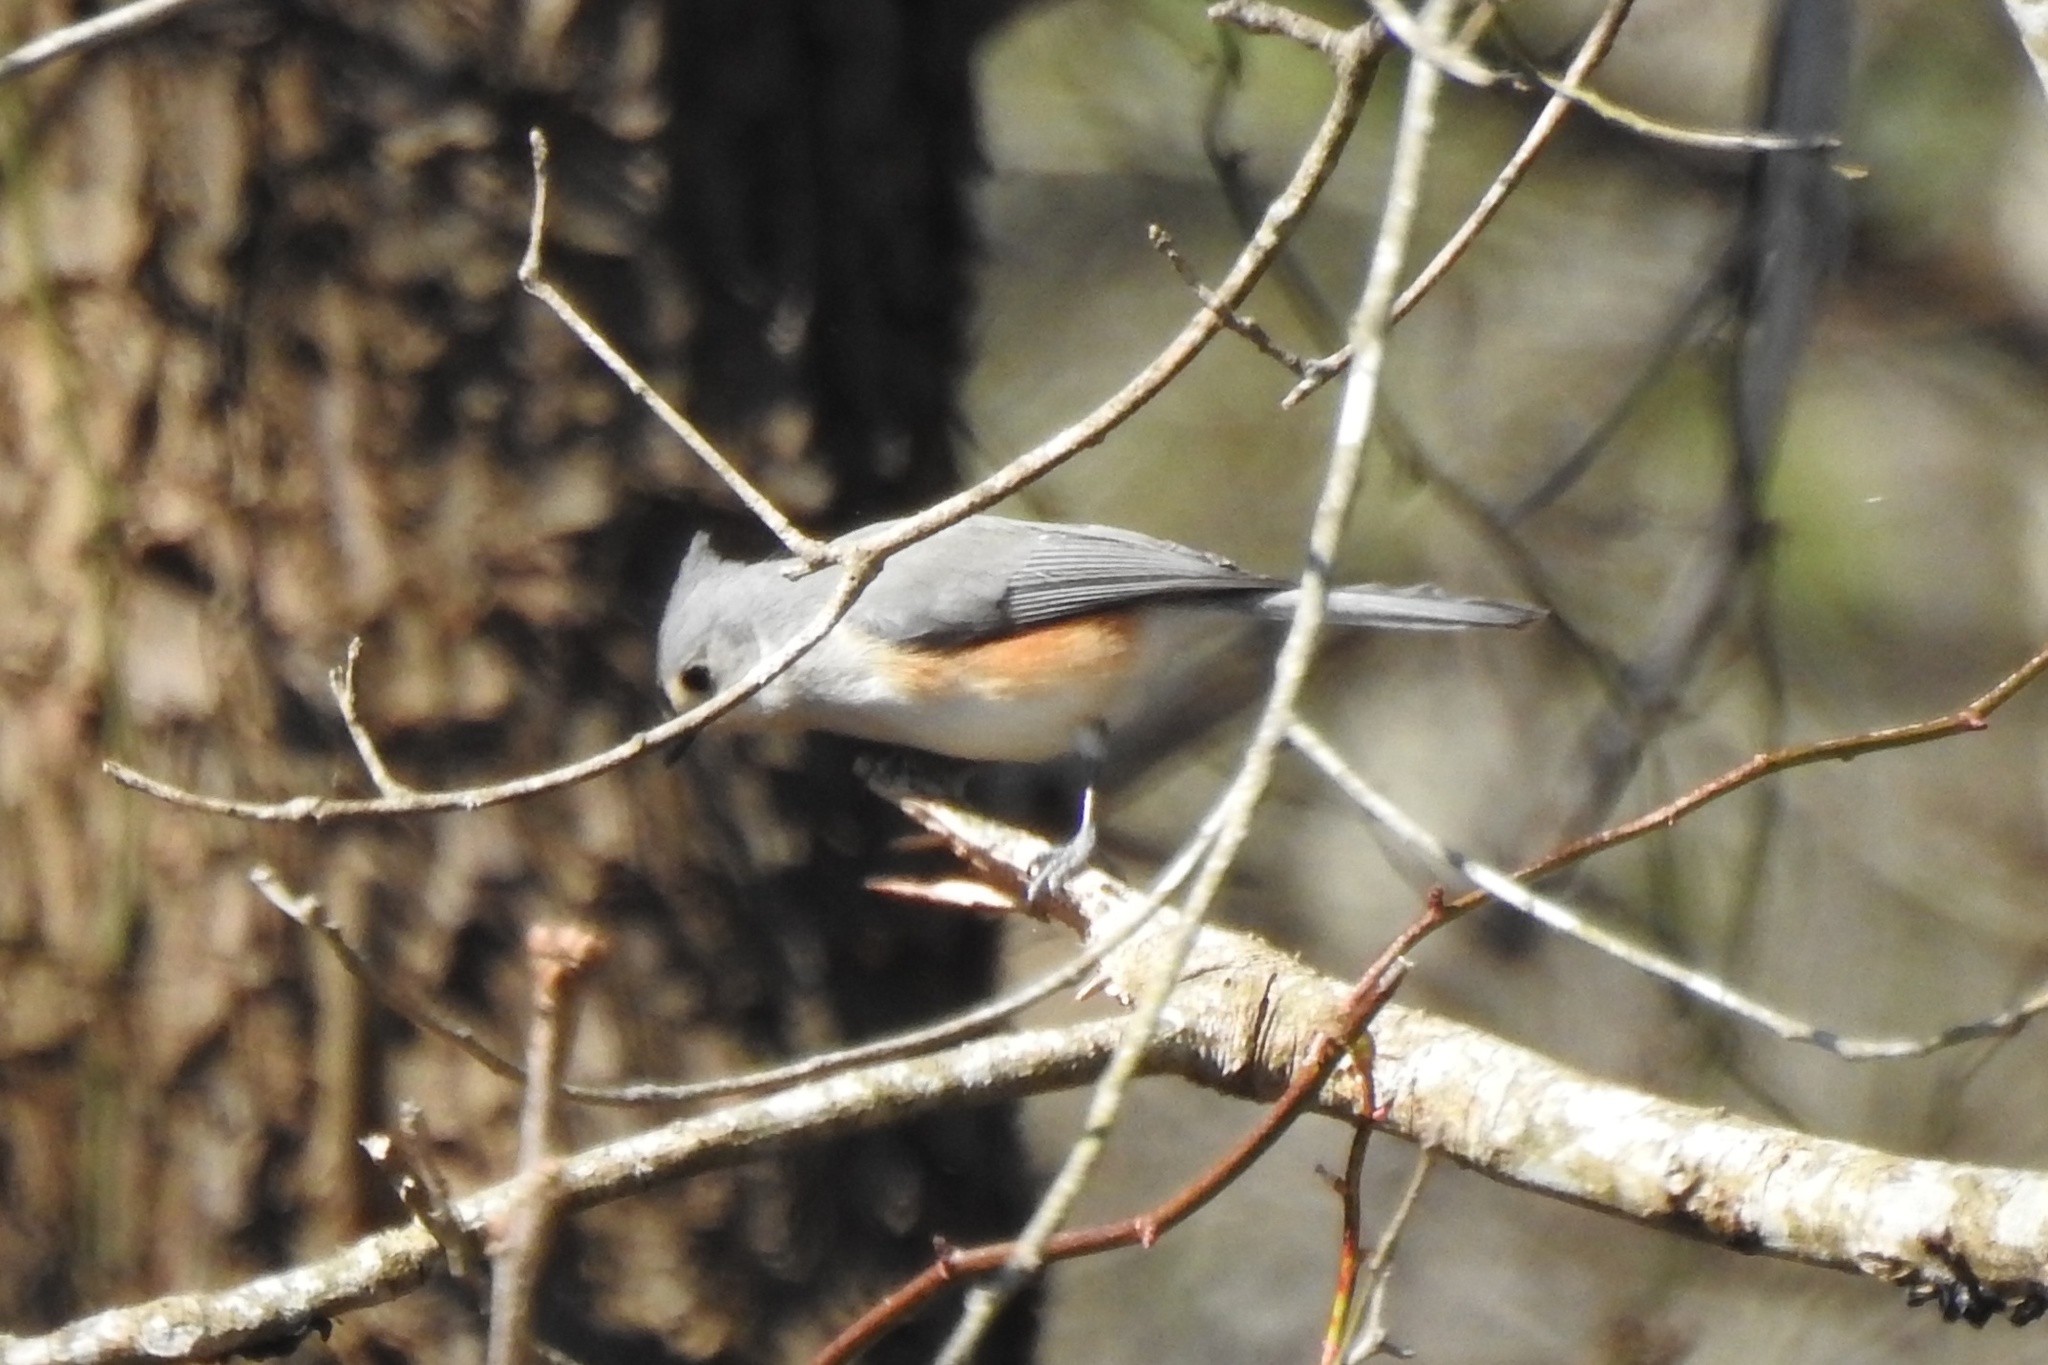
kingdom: Animalia
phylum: Chordata
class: Aves
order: Passeriformes
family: Paridae
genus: Baeolophus
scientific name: Baeolophus bicolor
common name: Tufted titmouse
